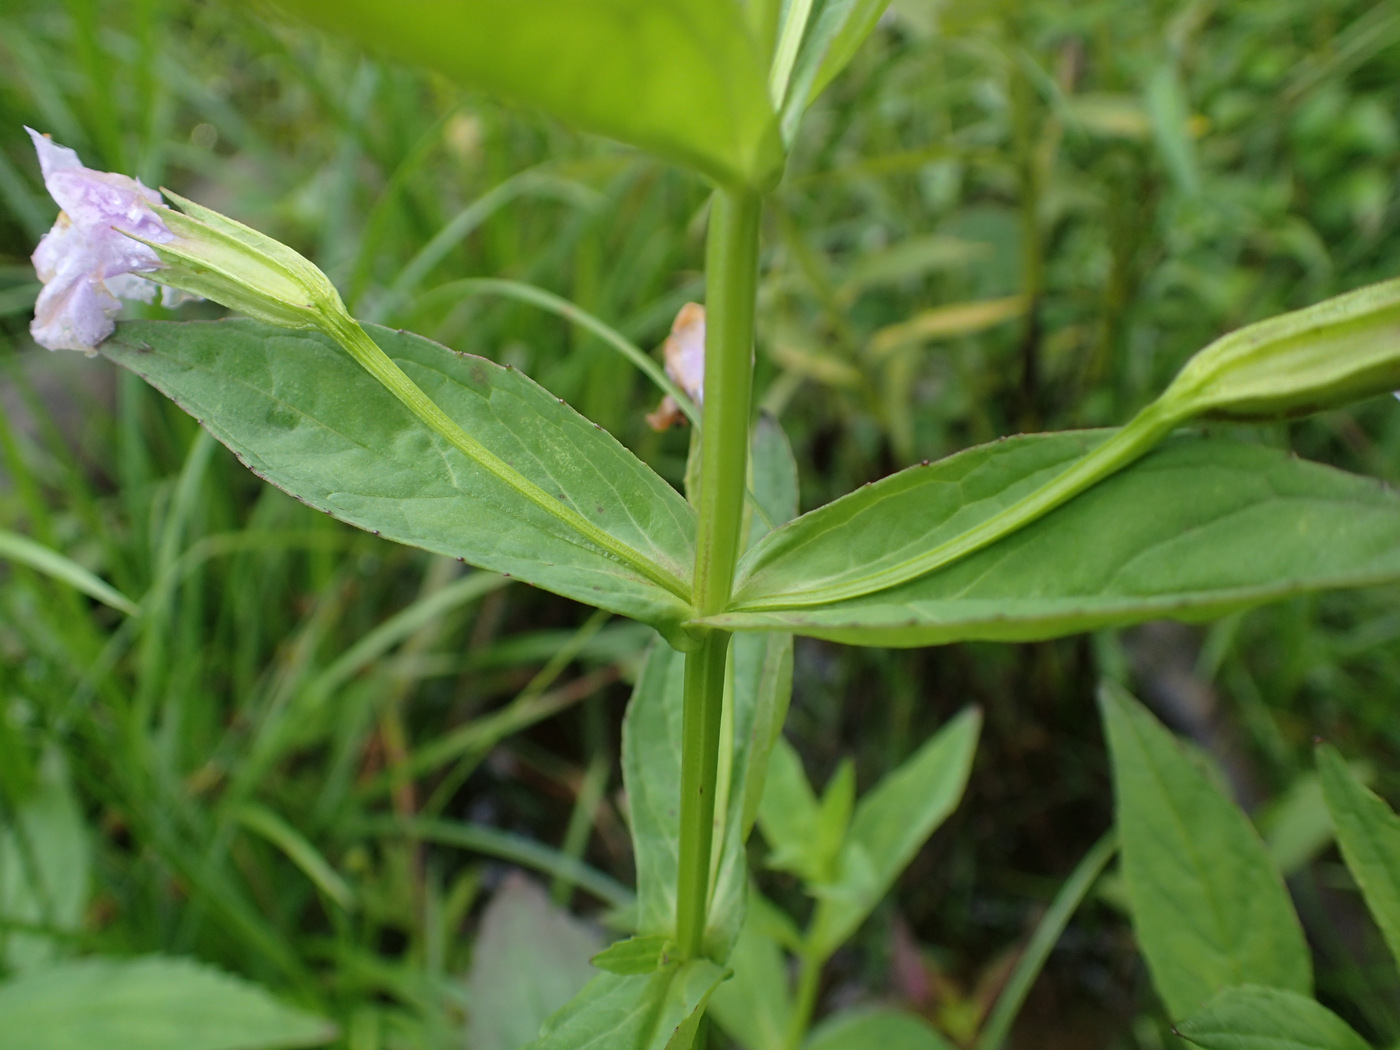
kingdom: Plantae
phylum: Tracheophyta
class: Magnoliopsida
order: Lamiales
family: Phrymaceae
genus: Mimulus
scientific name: Mimulus ringens
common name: Allegheny monkeyflower
